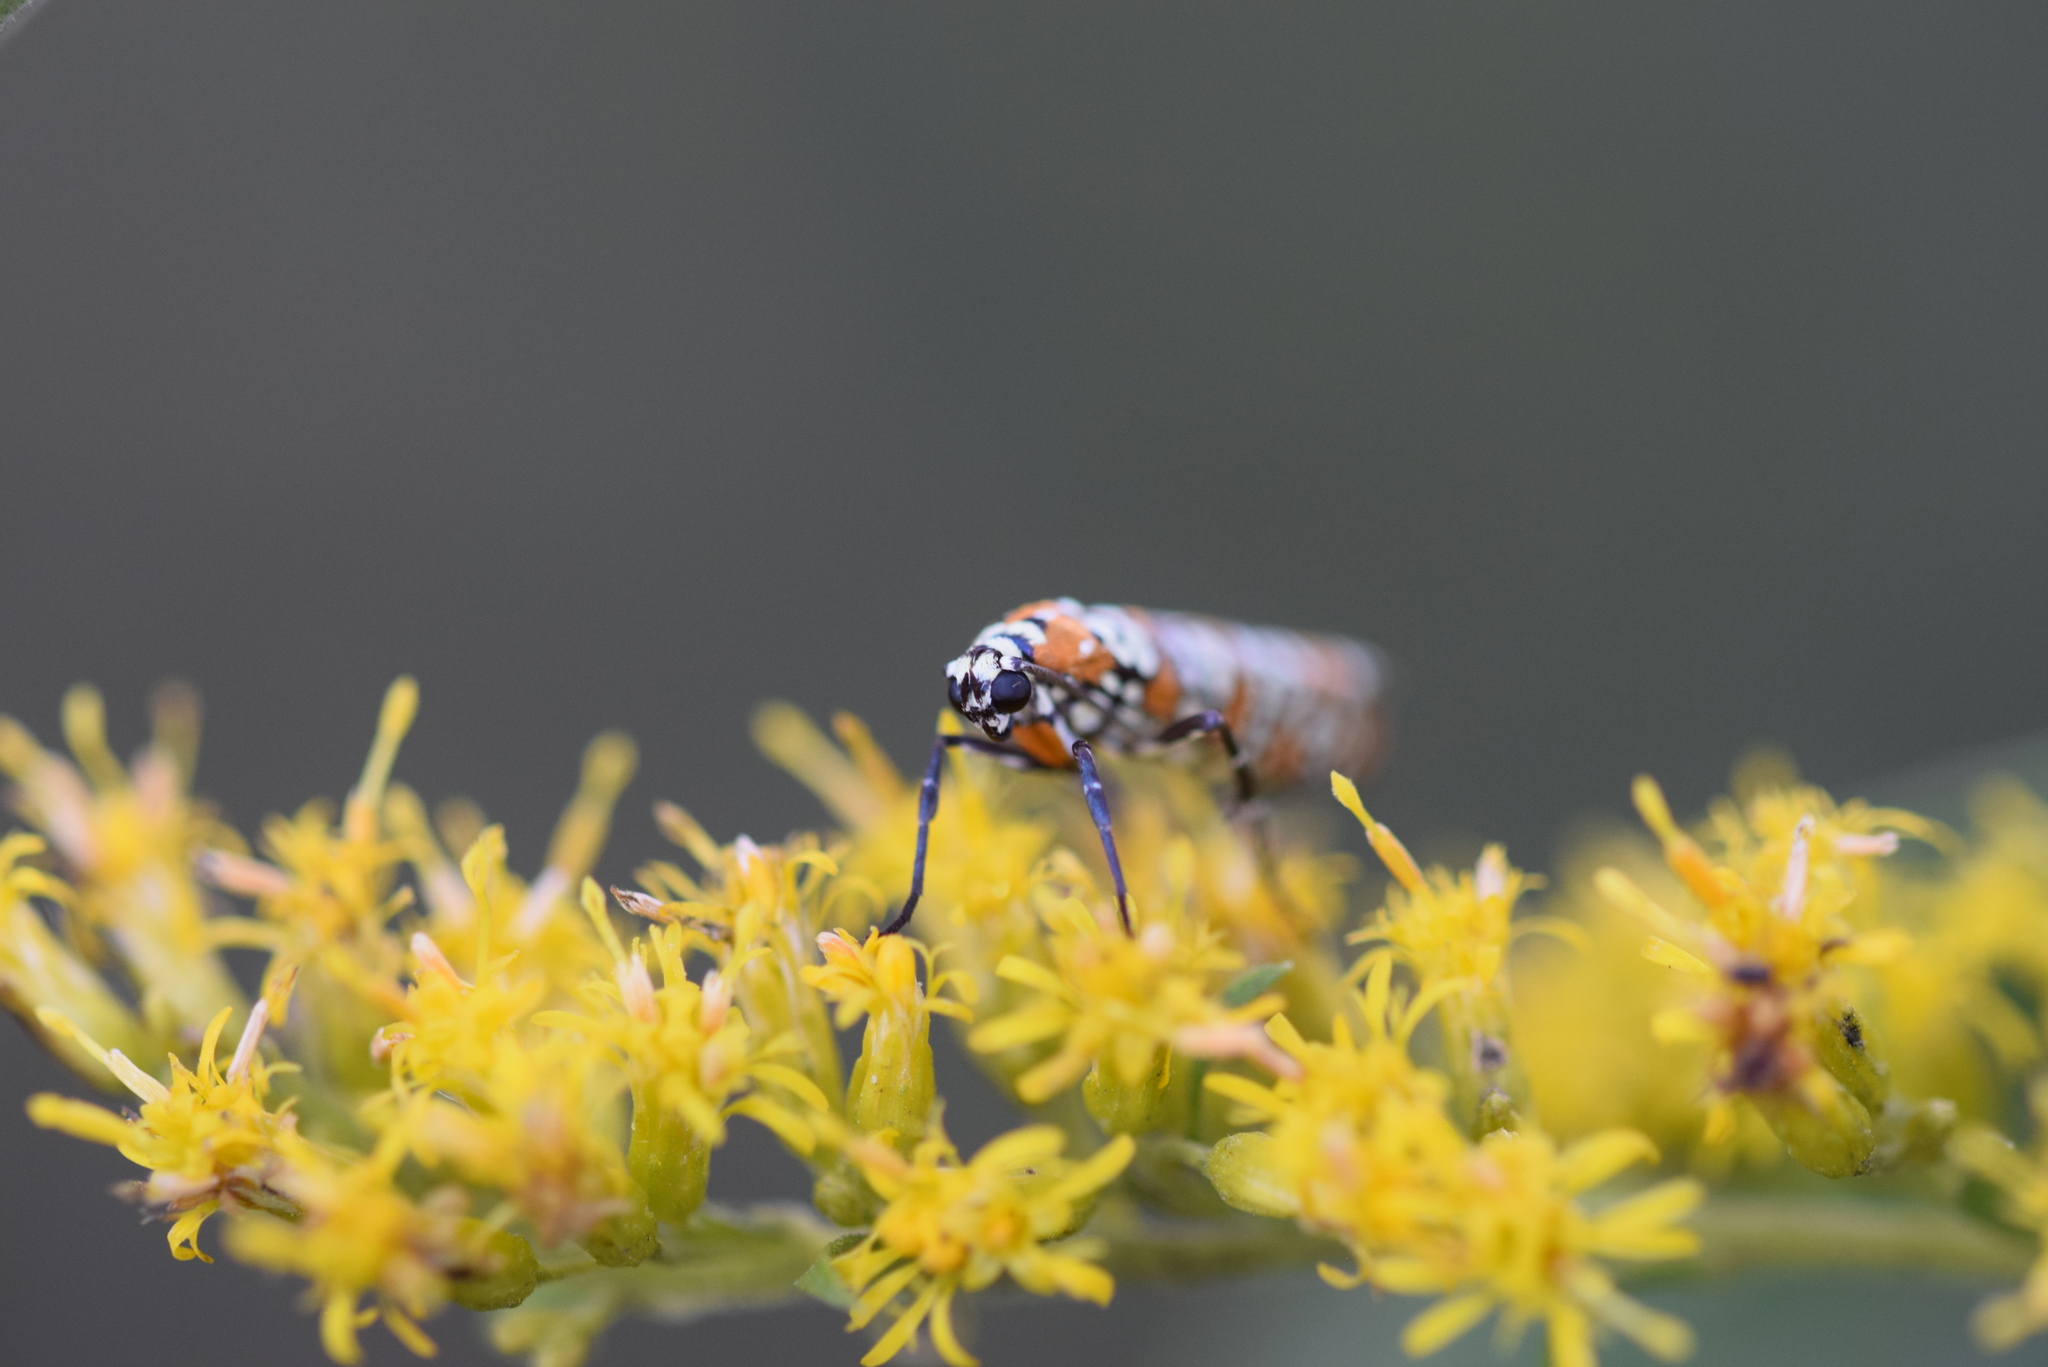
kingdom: Animalia
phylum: Arthropoda
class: Insecta
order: Lepidoptera
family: Attevidae
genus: Atteva
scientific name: Atteva punctella
